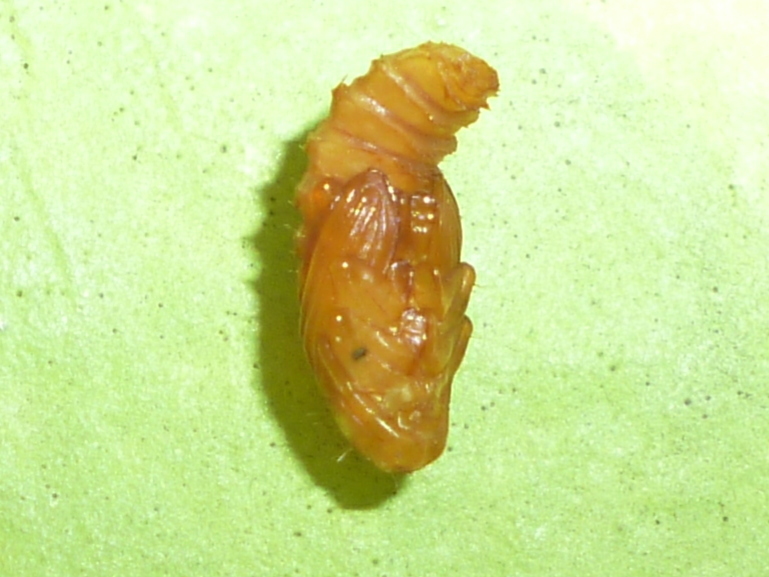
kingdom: Animalia
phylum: Arthropoda
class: Insecta
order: Coleoptera
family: Chrysomelidae
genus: Odontota
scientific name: Odontota dorsalis
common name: Locust leaf-miner beetle
